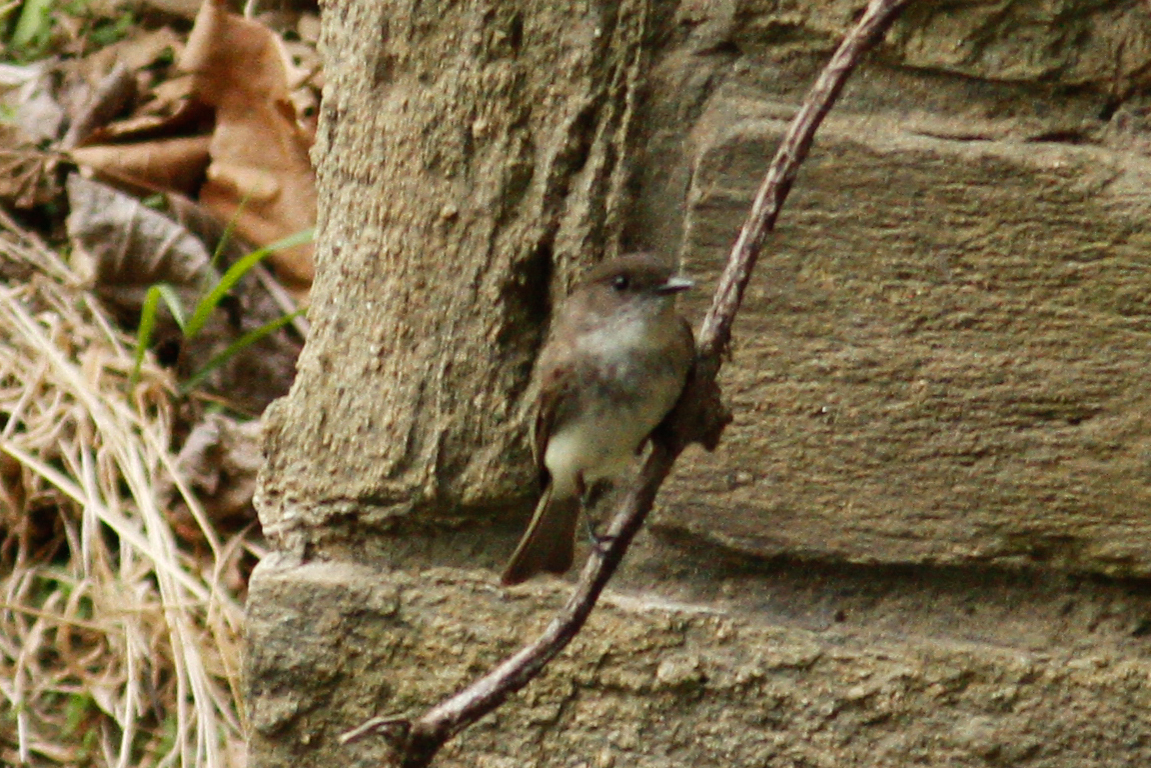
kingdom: Animalia
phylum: Chordata
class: Aves
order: Passeriformes
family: Tyrannidae
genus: Sayornis
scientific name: Sayornis phoebe
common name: Eastern phoebe
